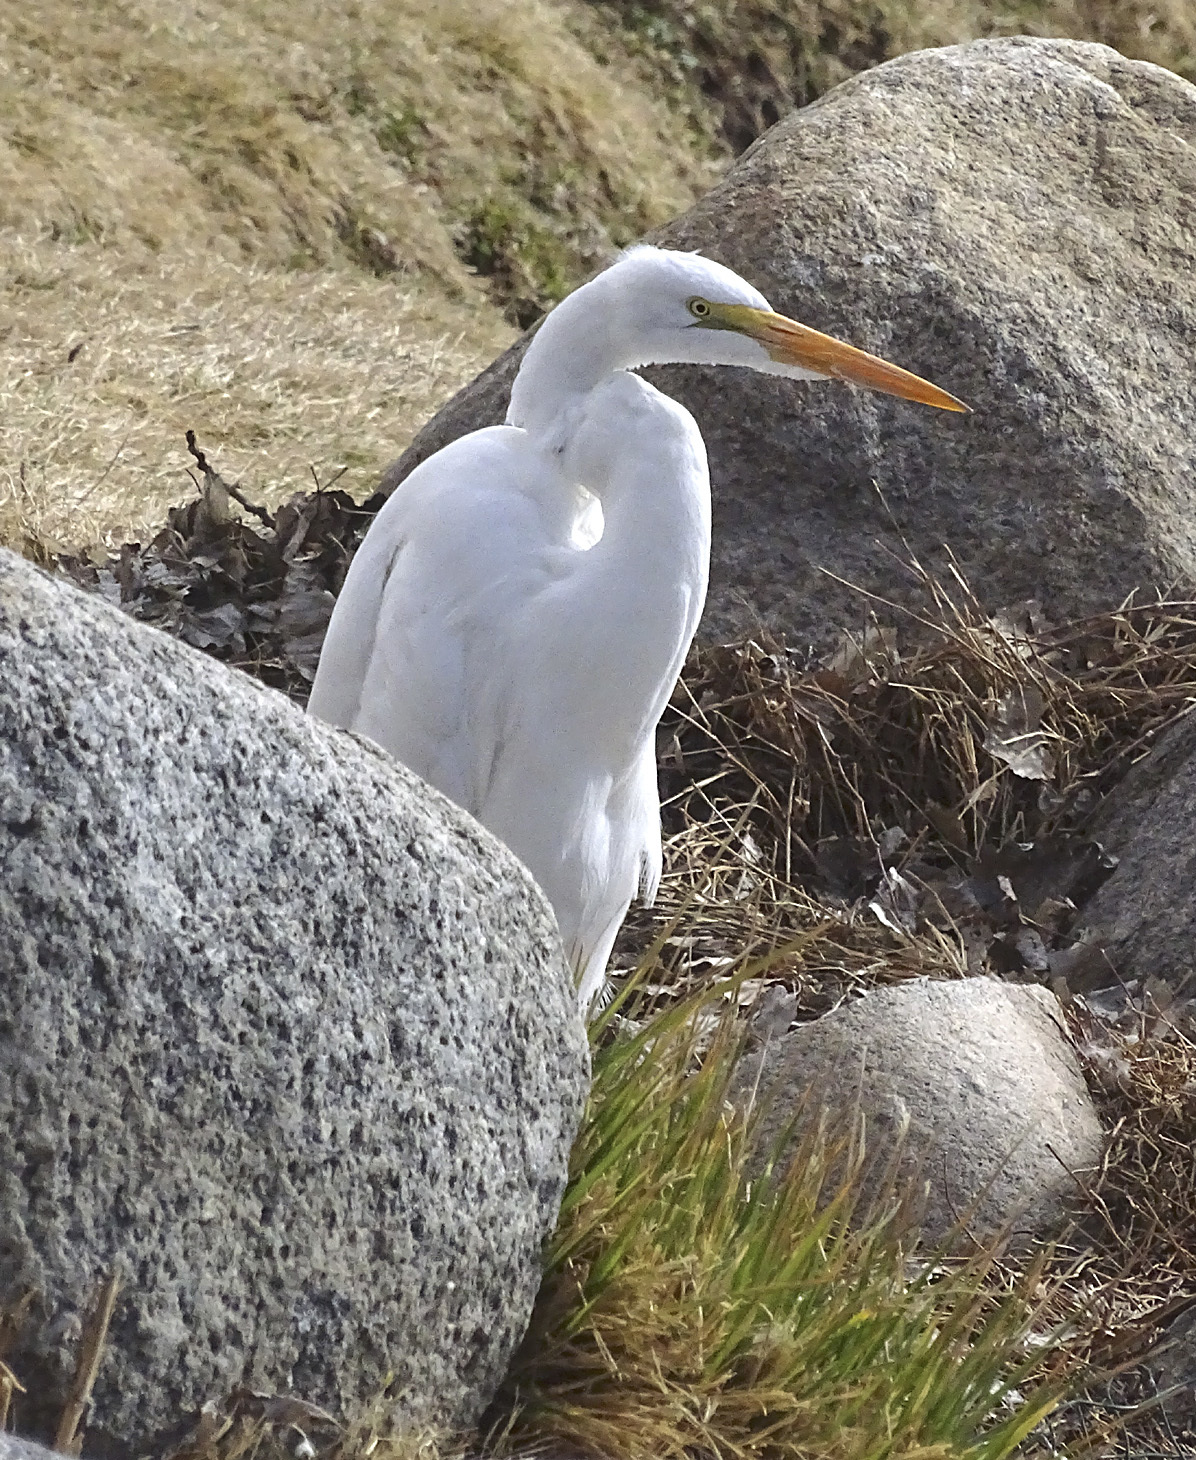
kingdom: Animalia
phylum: Chordata
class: Aves
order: Pelecaniformes
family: Ardeidae
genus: Ardea
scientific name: Ardea alba
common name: Great egret
